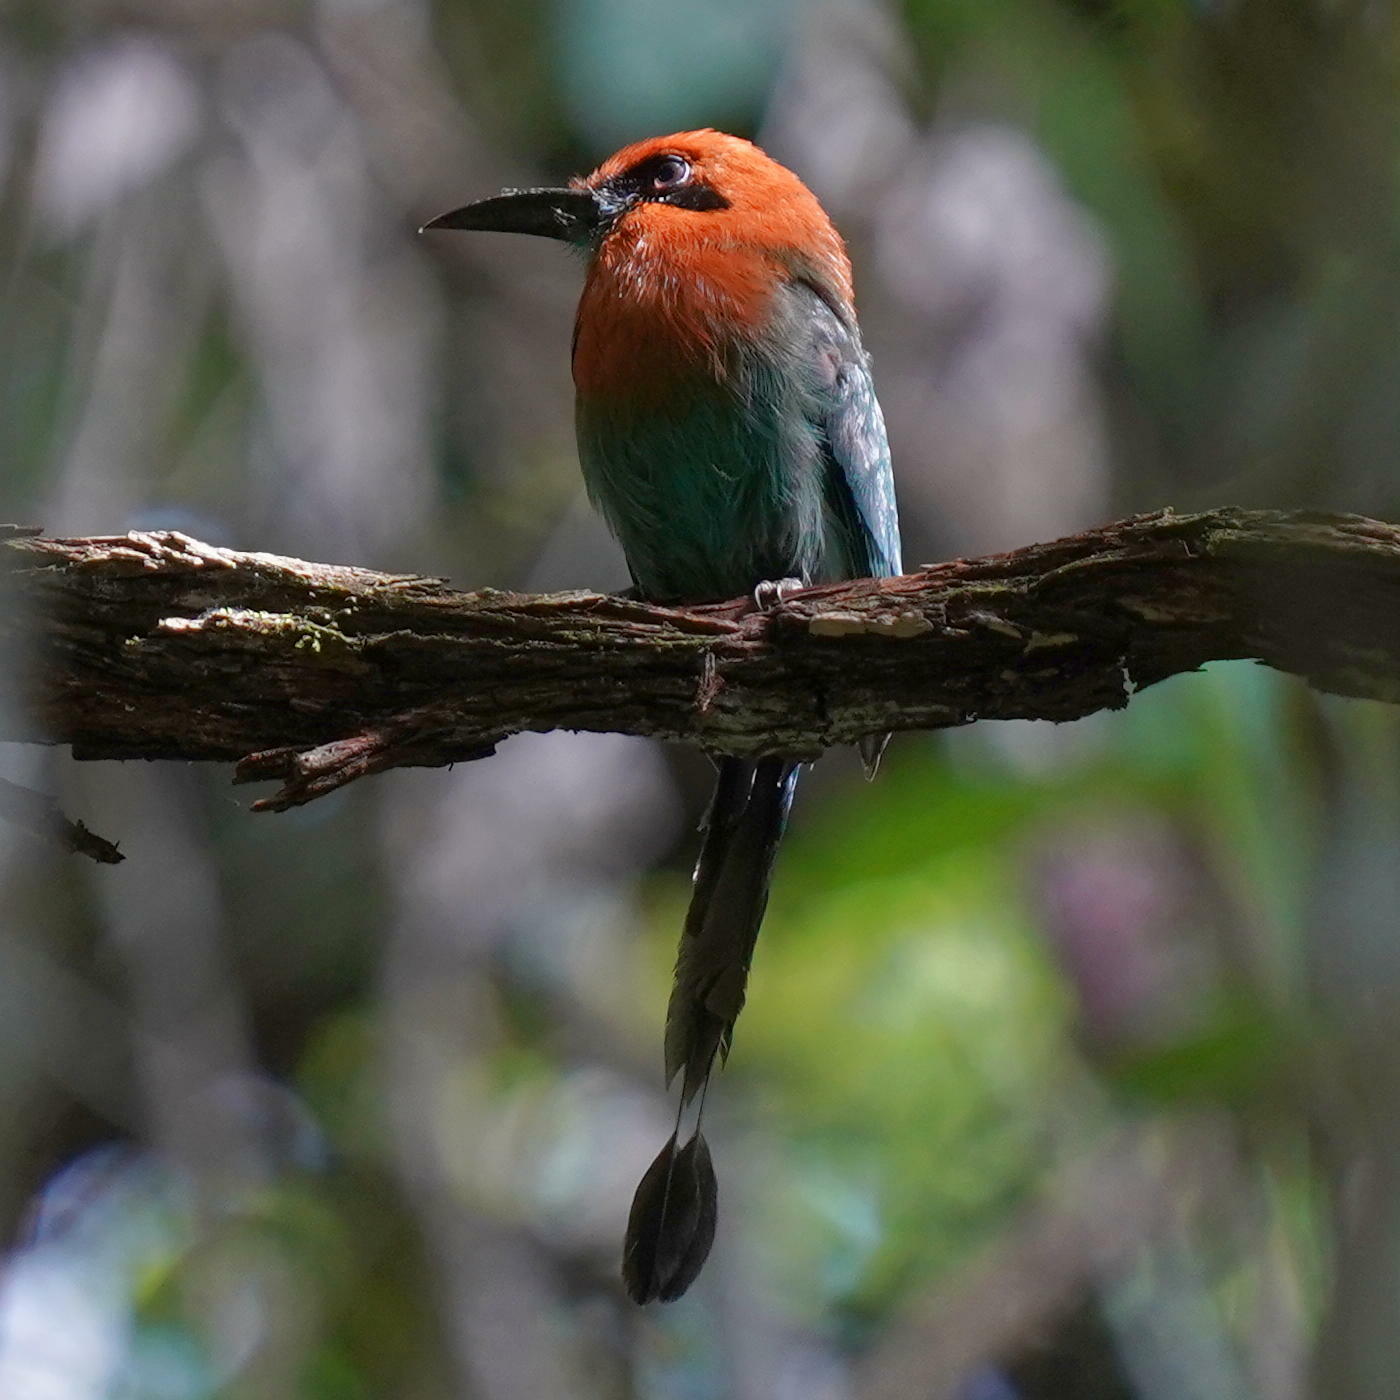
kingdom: Animalia
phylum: Chordata
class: Aves
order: Coraciiformes
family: Momotidae
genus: Electron
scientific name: Electron platyrhynchum
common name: Broad-billed motmot
